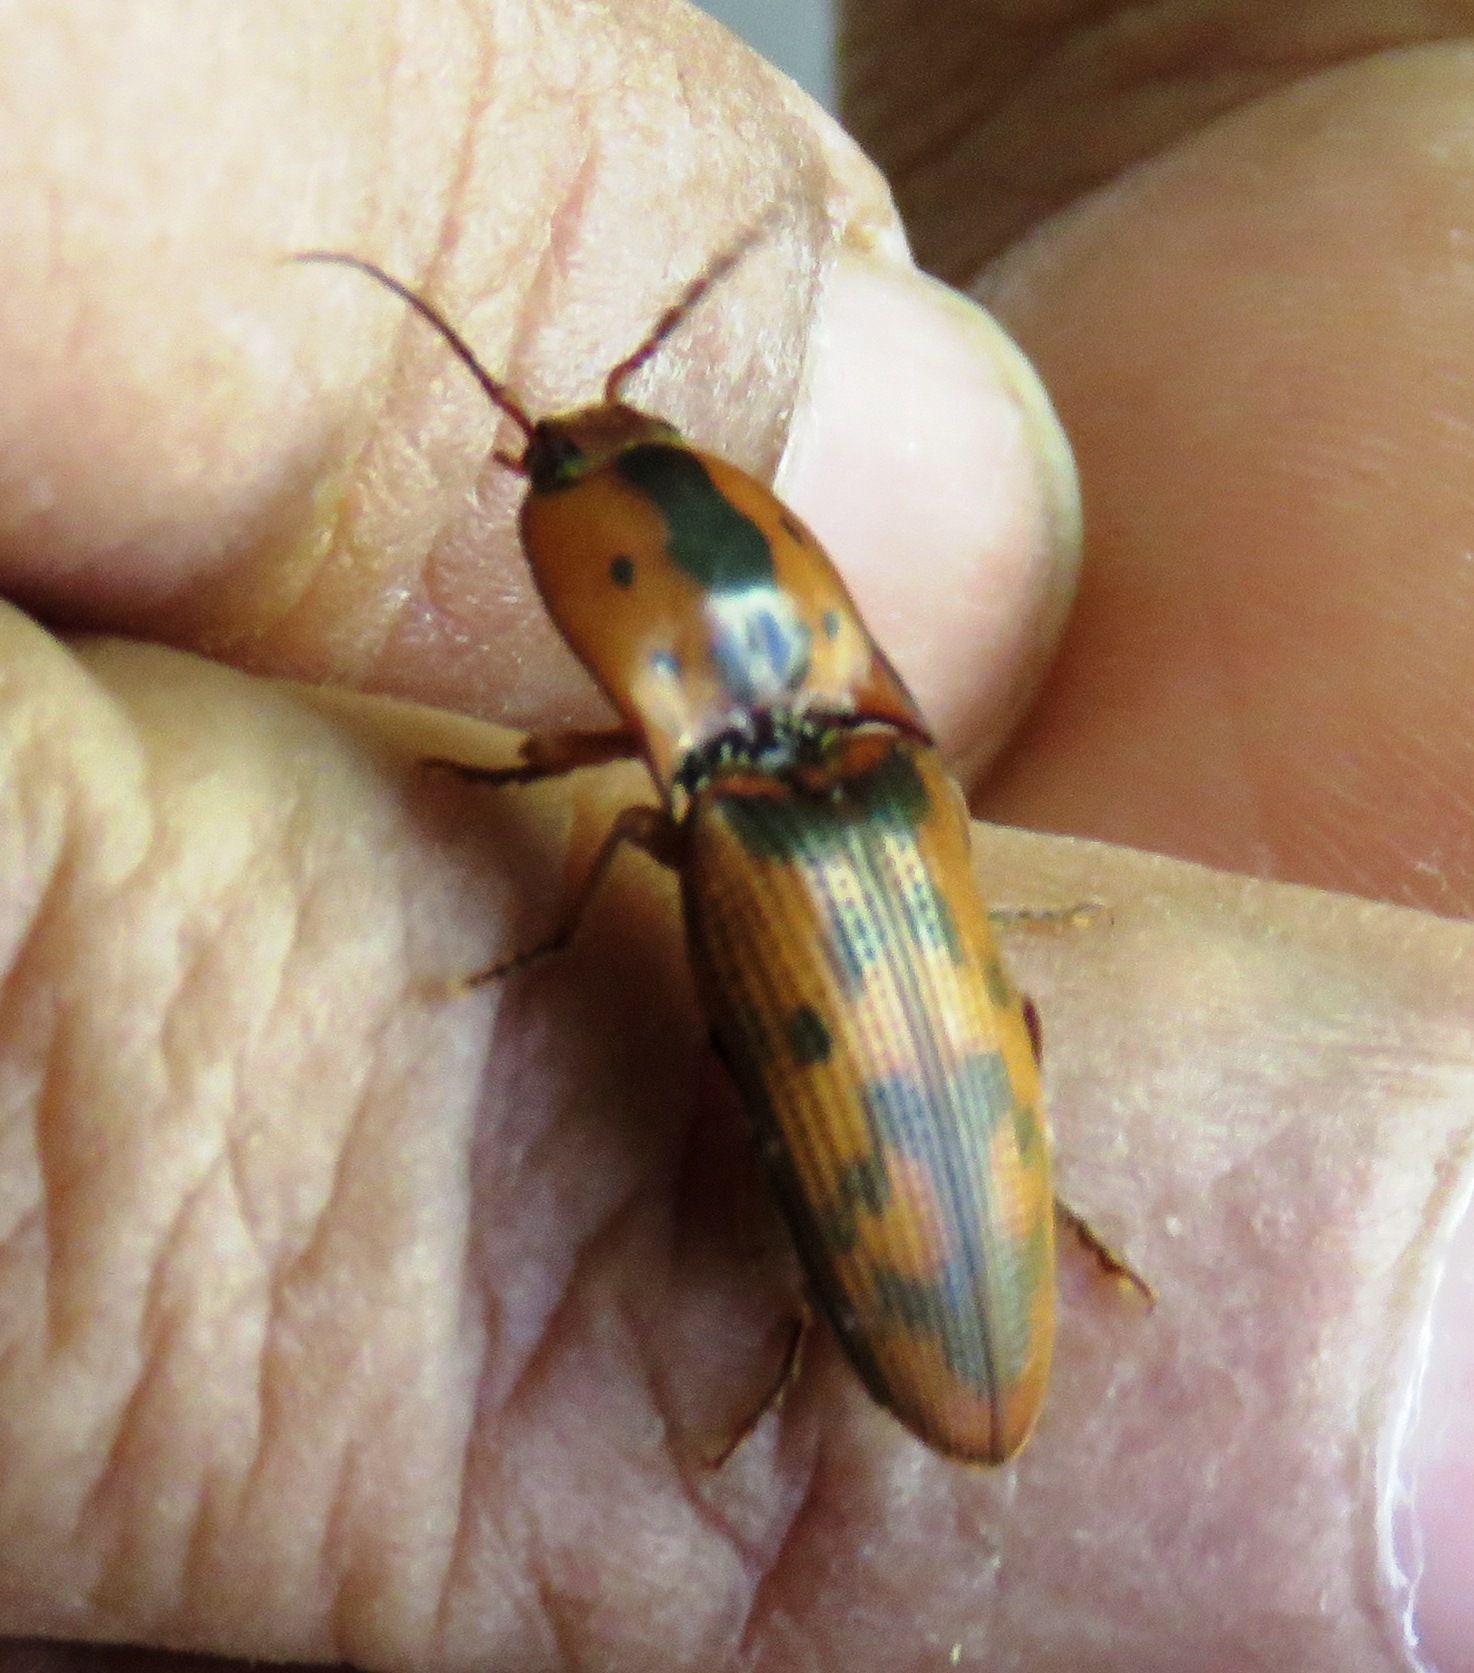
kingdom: Animalia
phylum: Arthropoda
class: Insecta
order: Coleoptera
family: Elateridae
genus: Monocrepidius
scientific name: Monocrepidius pilatei
